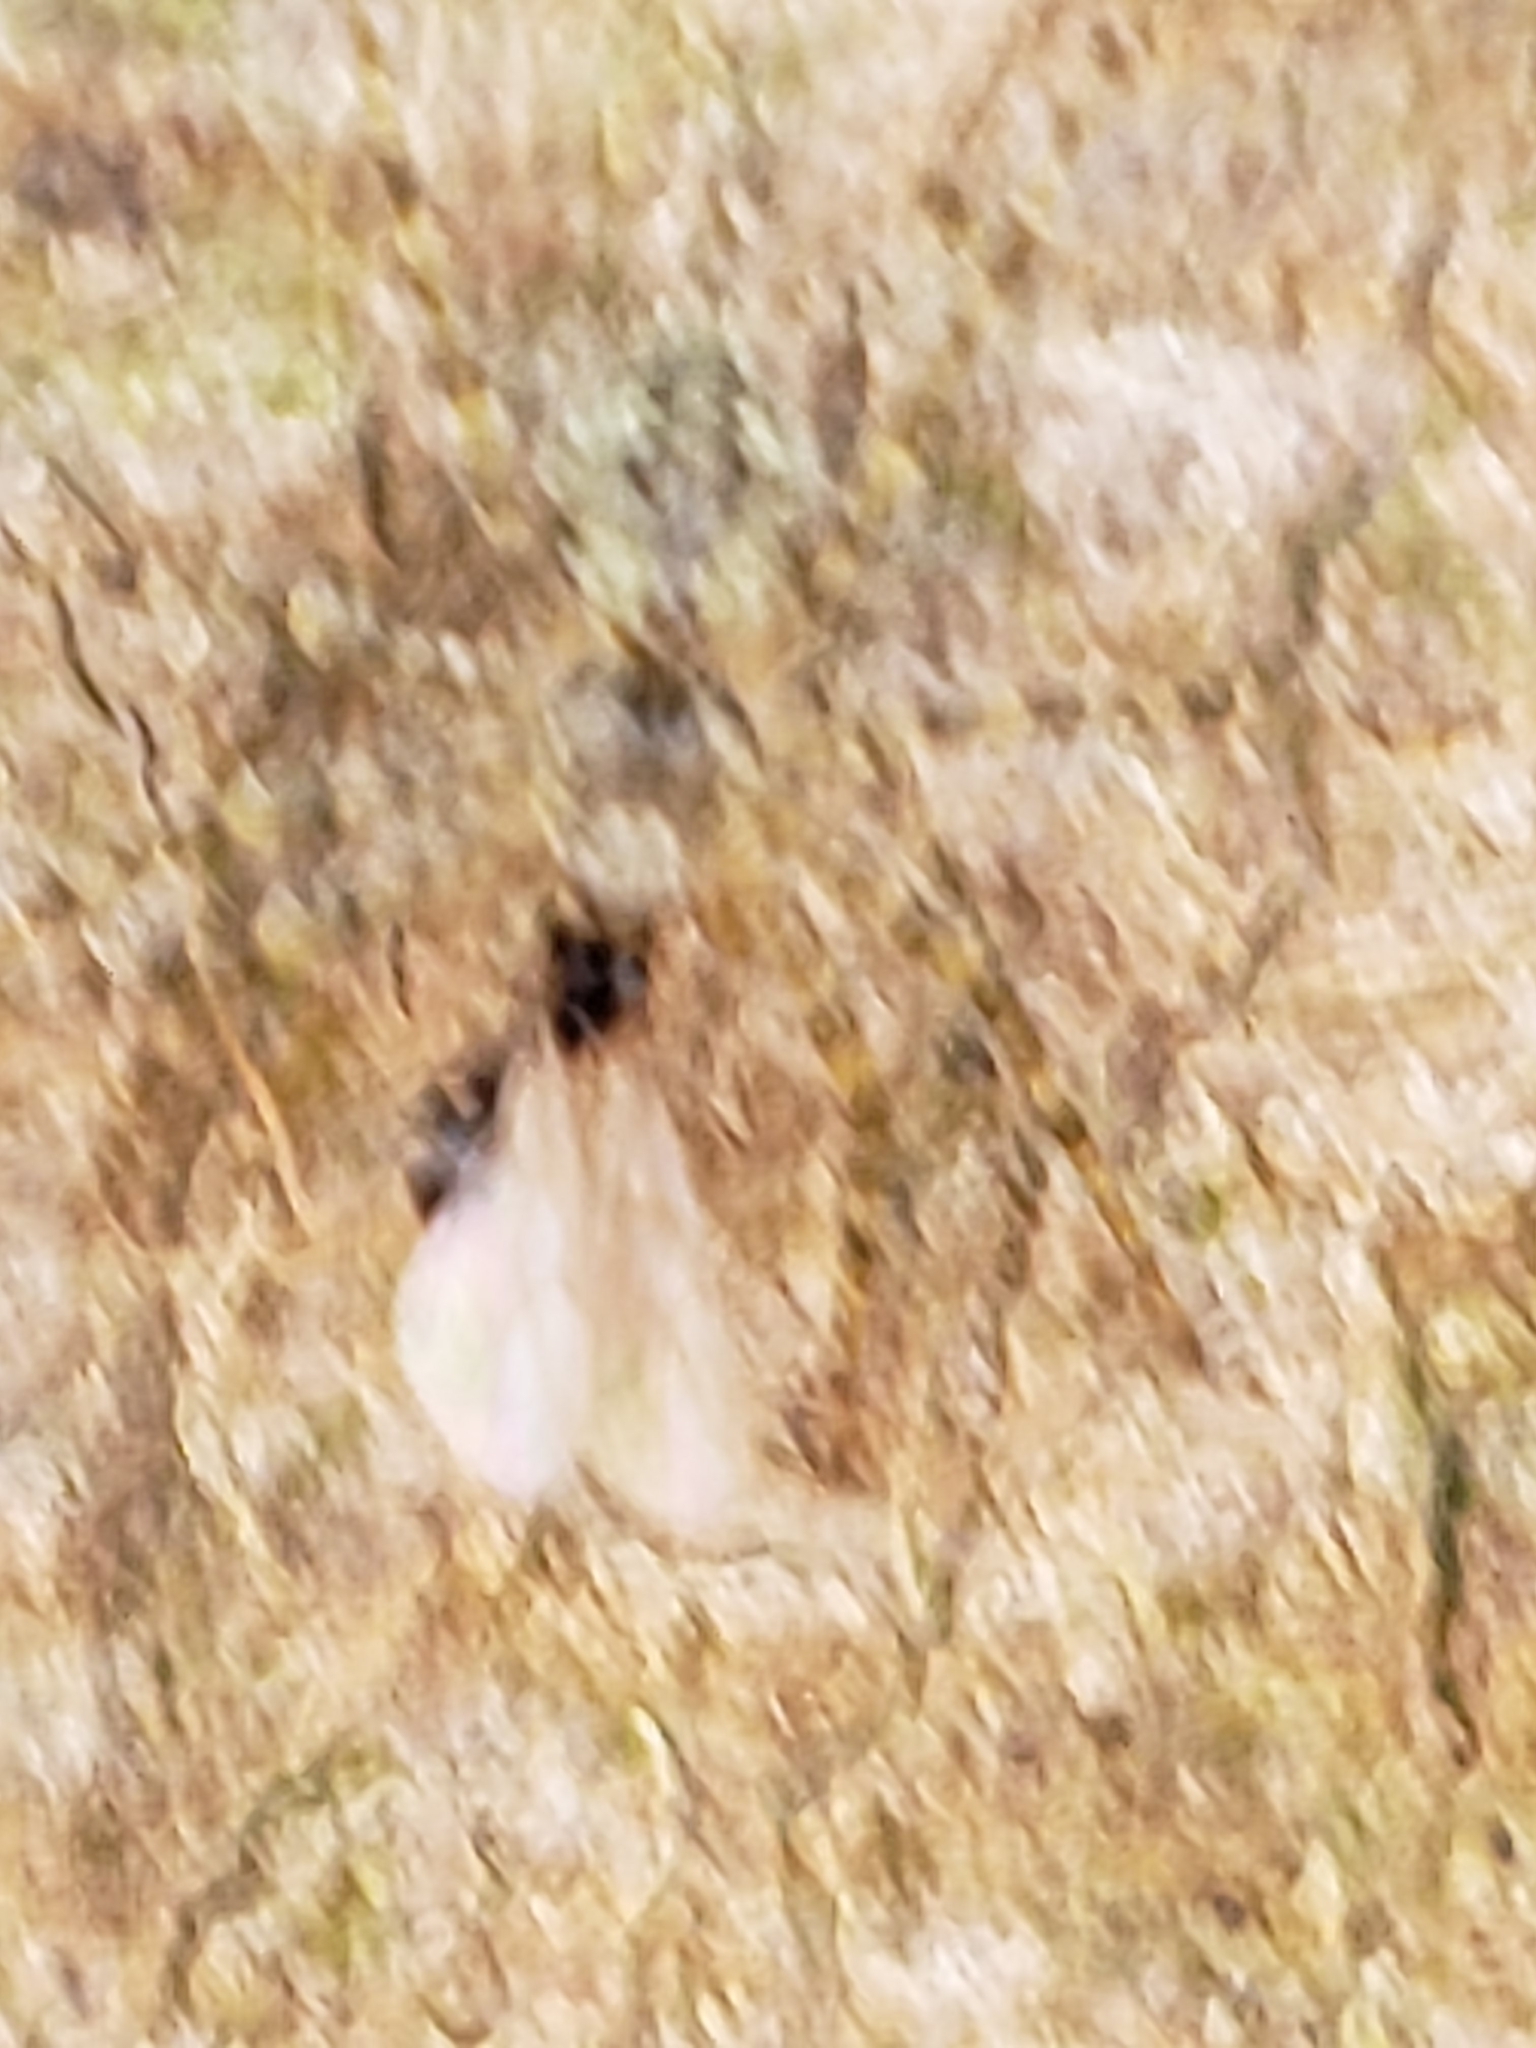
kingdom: Animalia
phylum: Arthropoda
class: Insecta
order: Hymenoptera
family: Formicidae
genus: Prenolepis
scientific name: Prenolepis imparis
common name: Small honey ant
